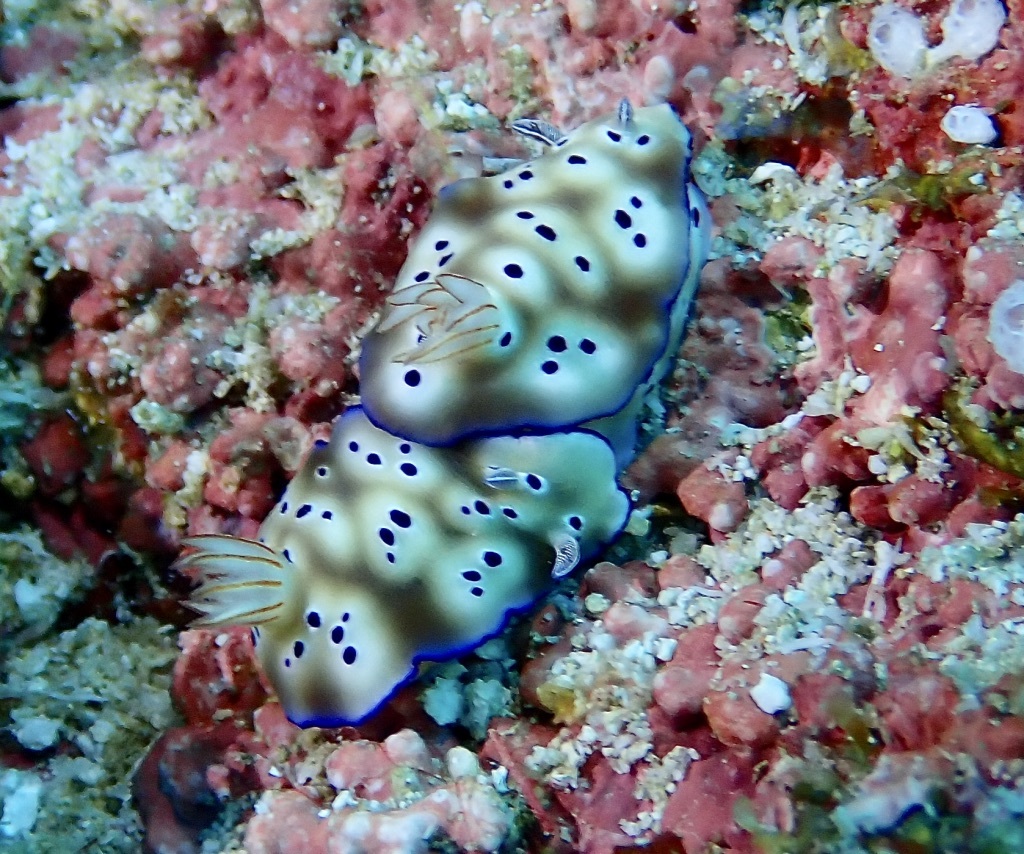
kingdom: Animalia
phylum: Mollusca
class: Gastropoda
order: Nudibranchia
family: Chromodorididae
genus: Hypselodoris
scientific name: Hypselodoris tryoni
